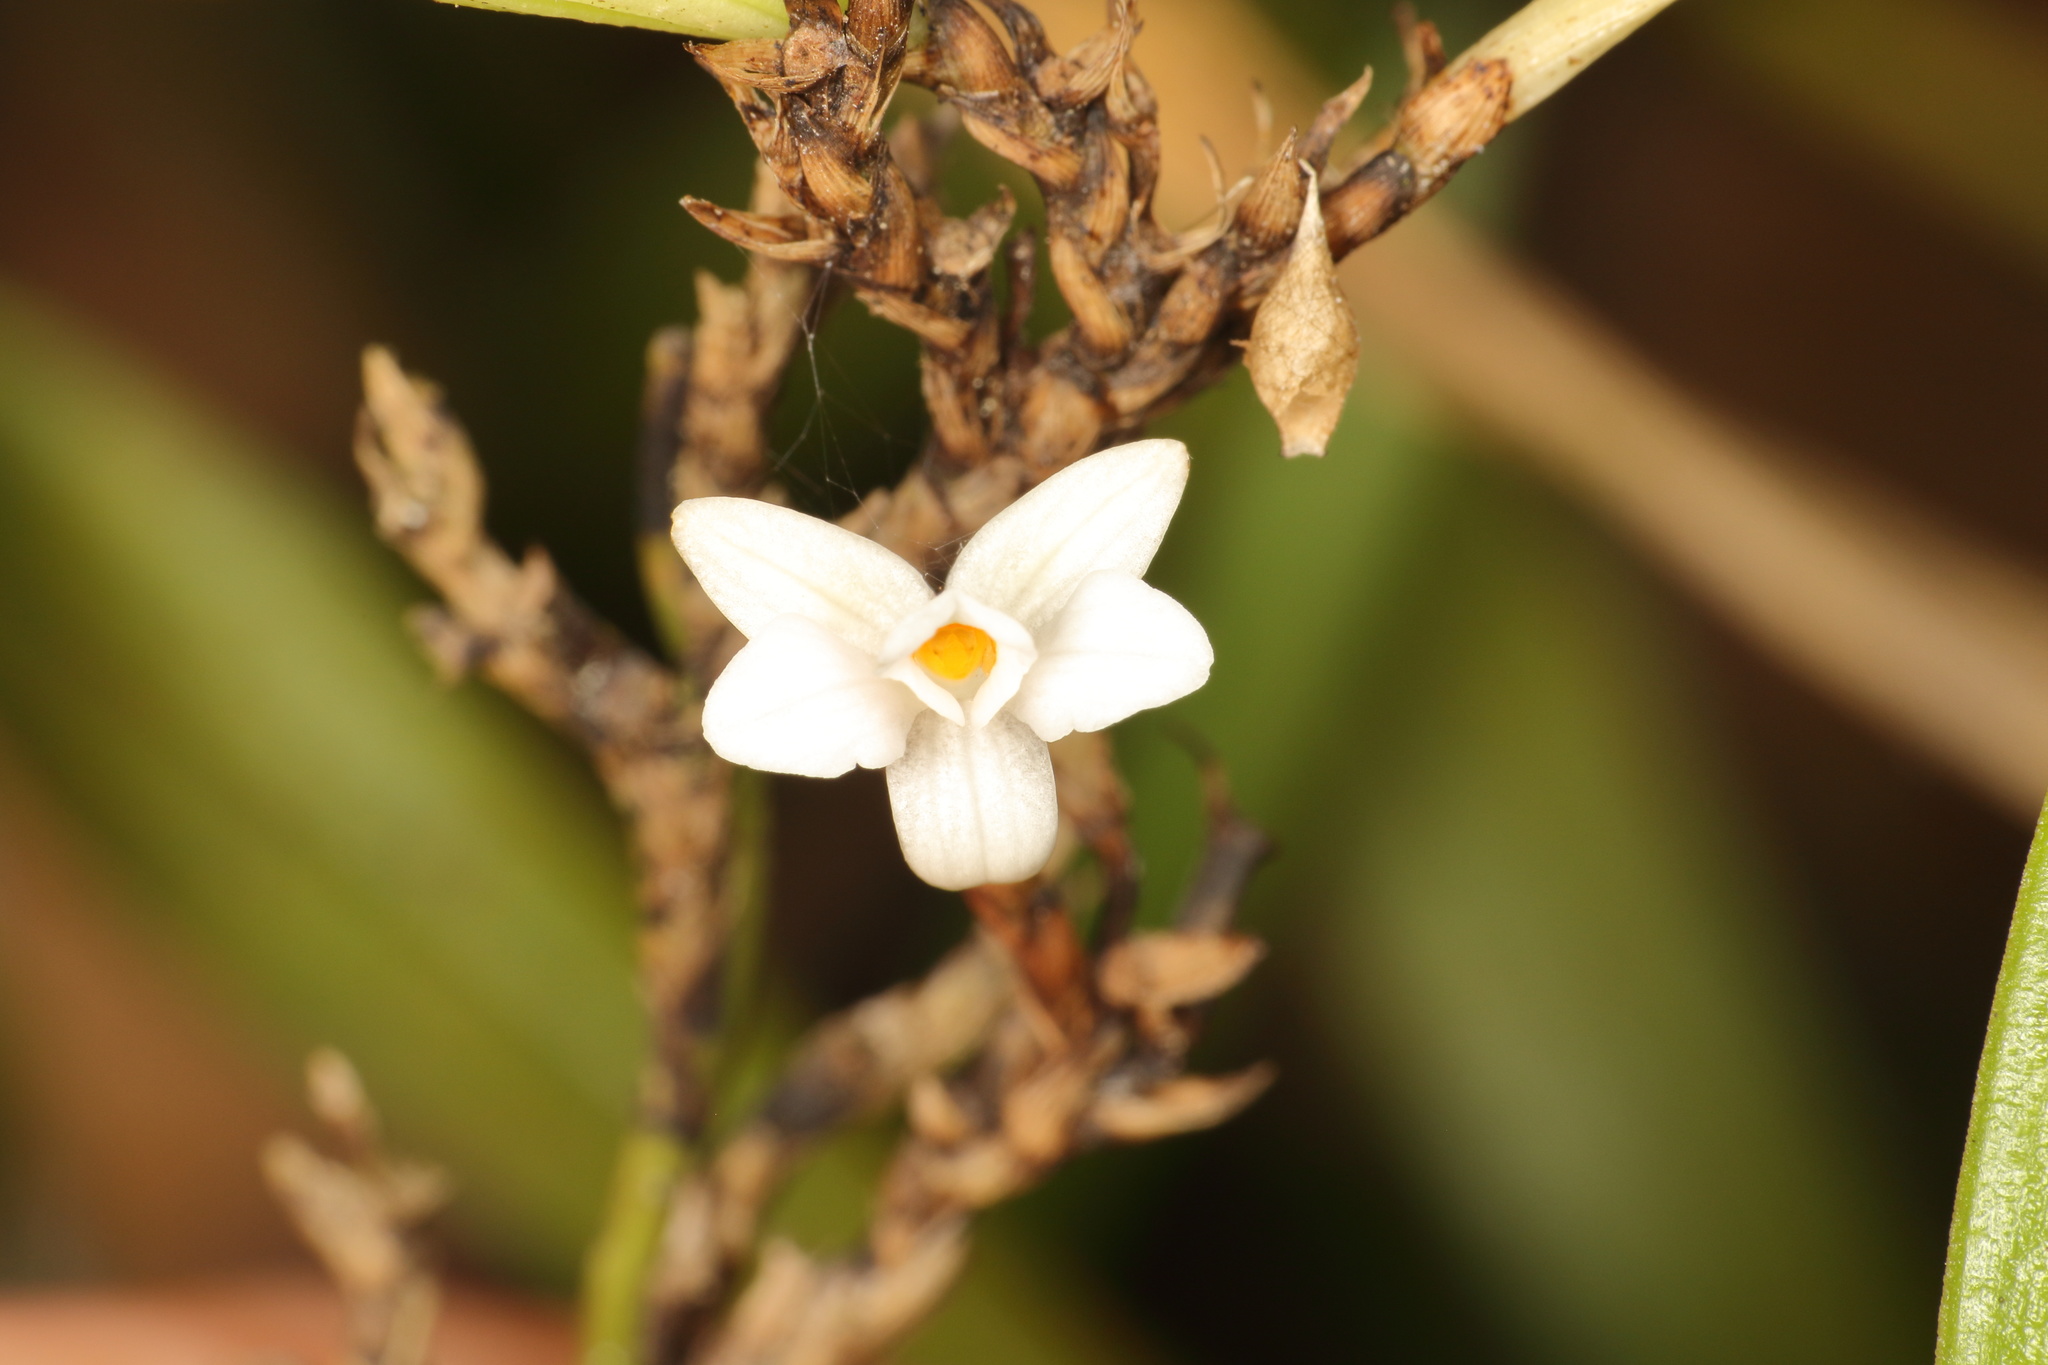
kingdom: Plantae
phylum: Tracheophyta
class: Liliopsida
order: Asparagales
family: Orchidaceae
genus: Earina
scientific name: Earina autumnalis
